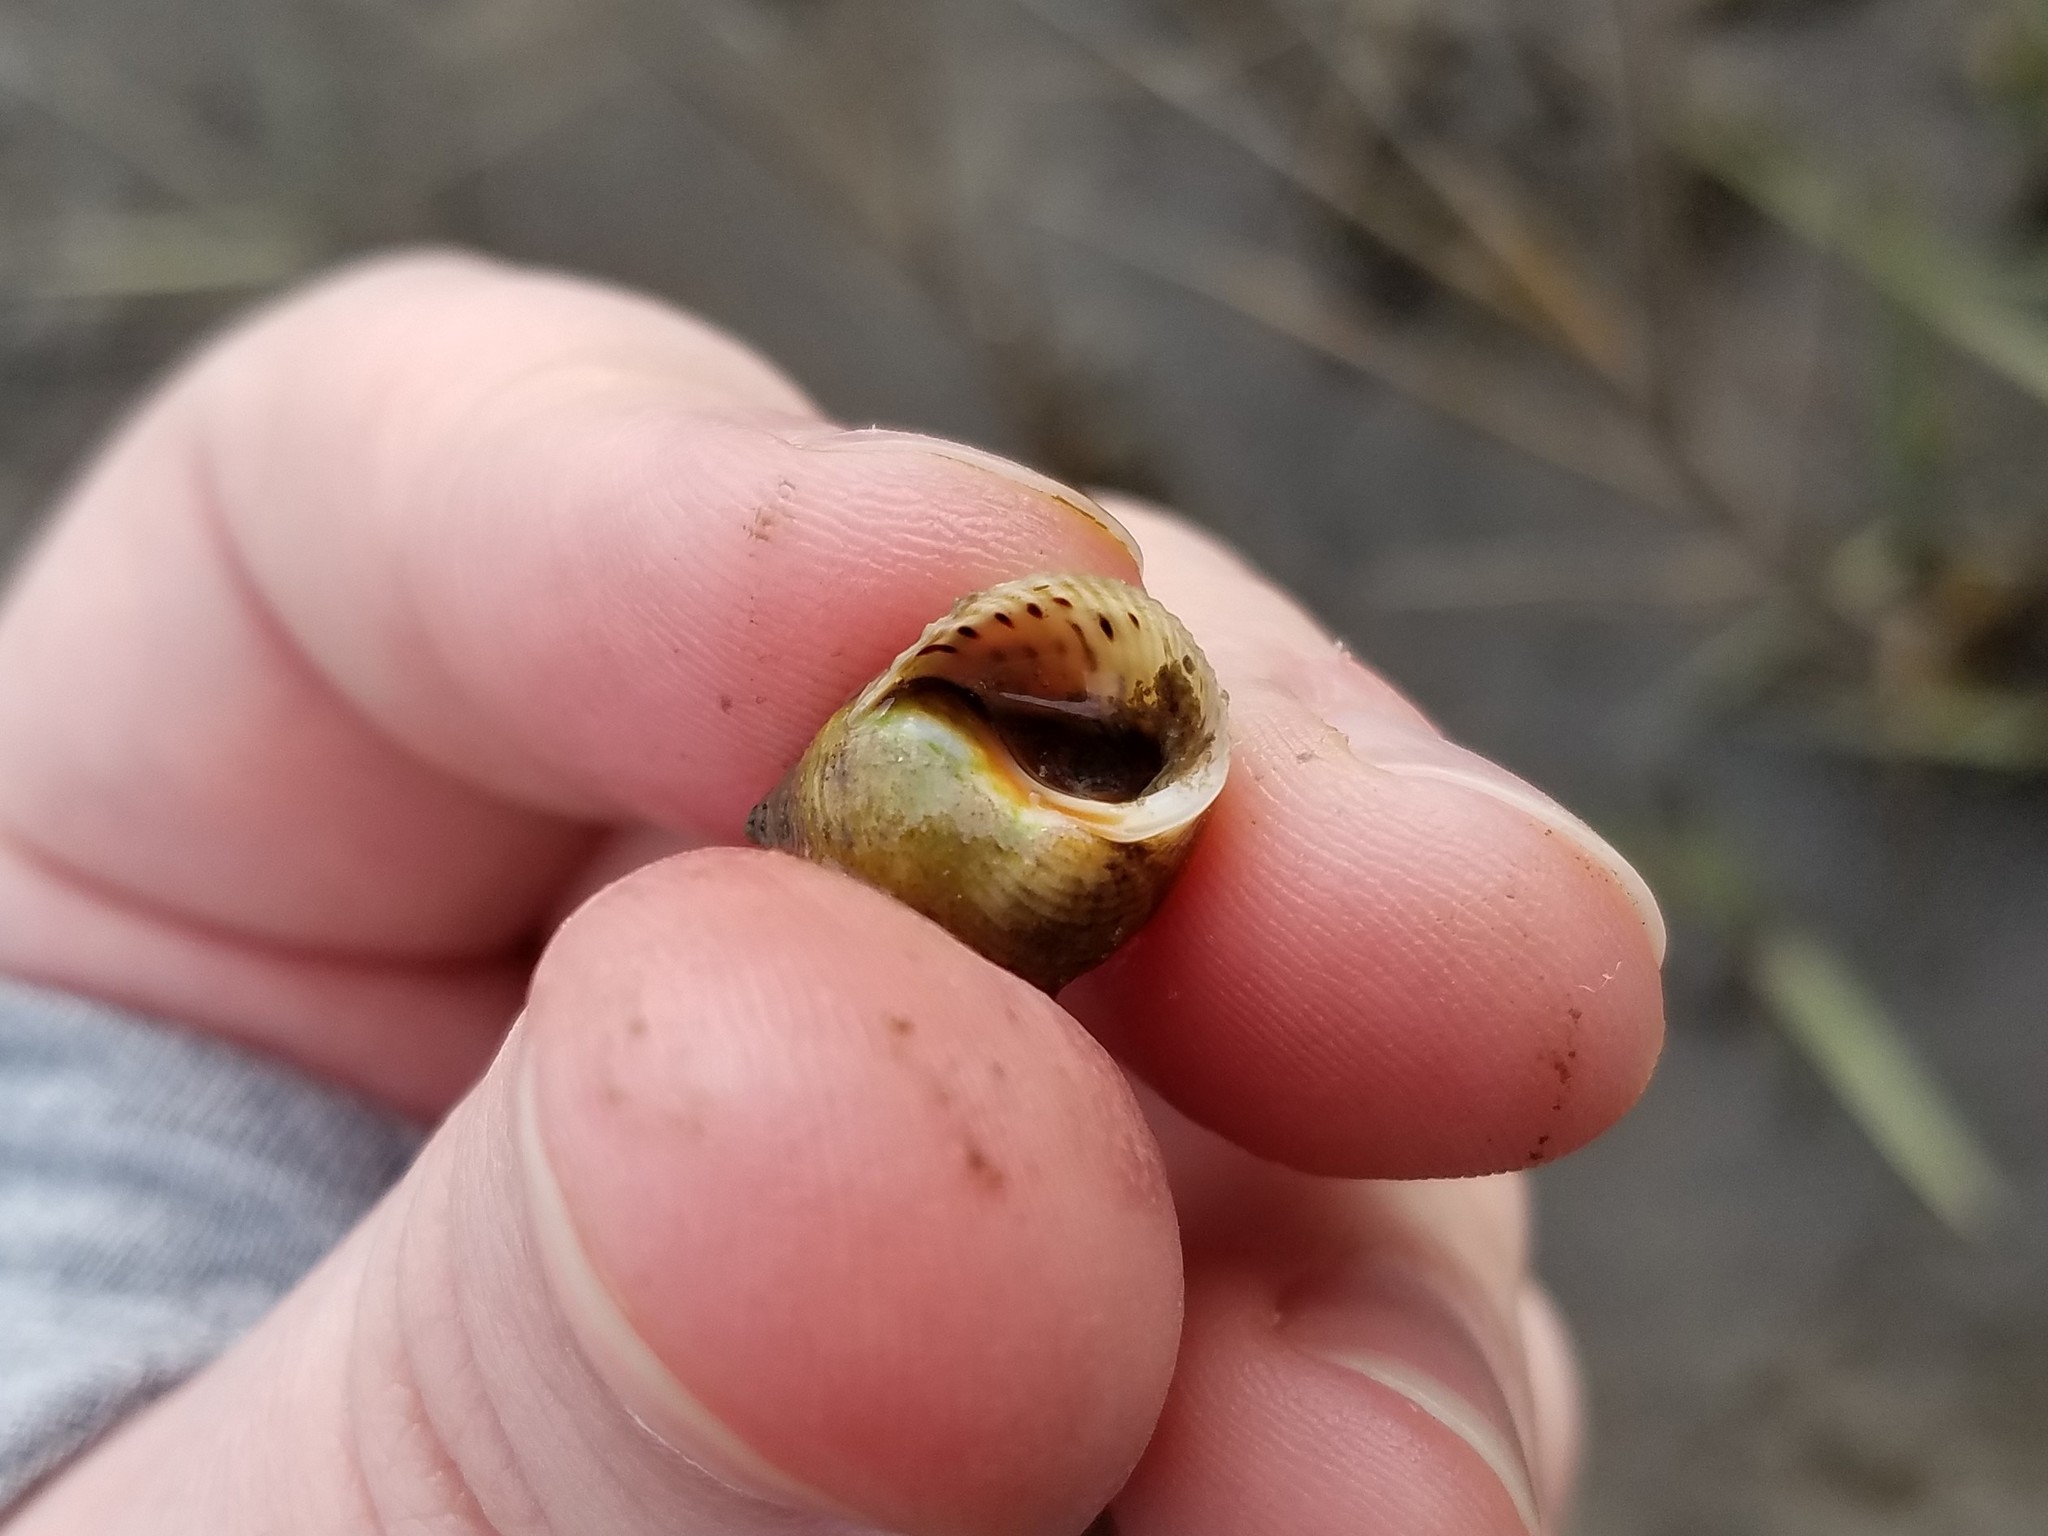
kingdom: Animalia
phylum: Mollusca
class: Gastropoda
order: Littorinimorpha
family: Littorinidae
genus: Littoraria
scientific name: Littoraria irrorata
